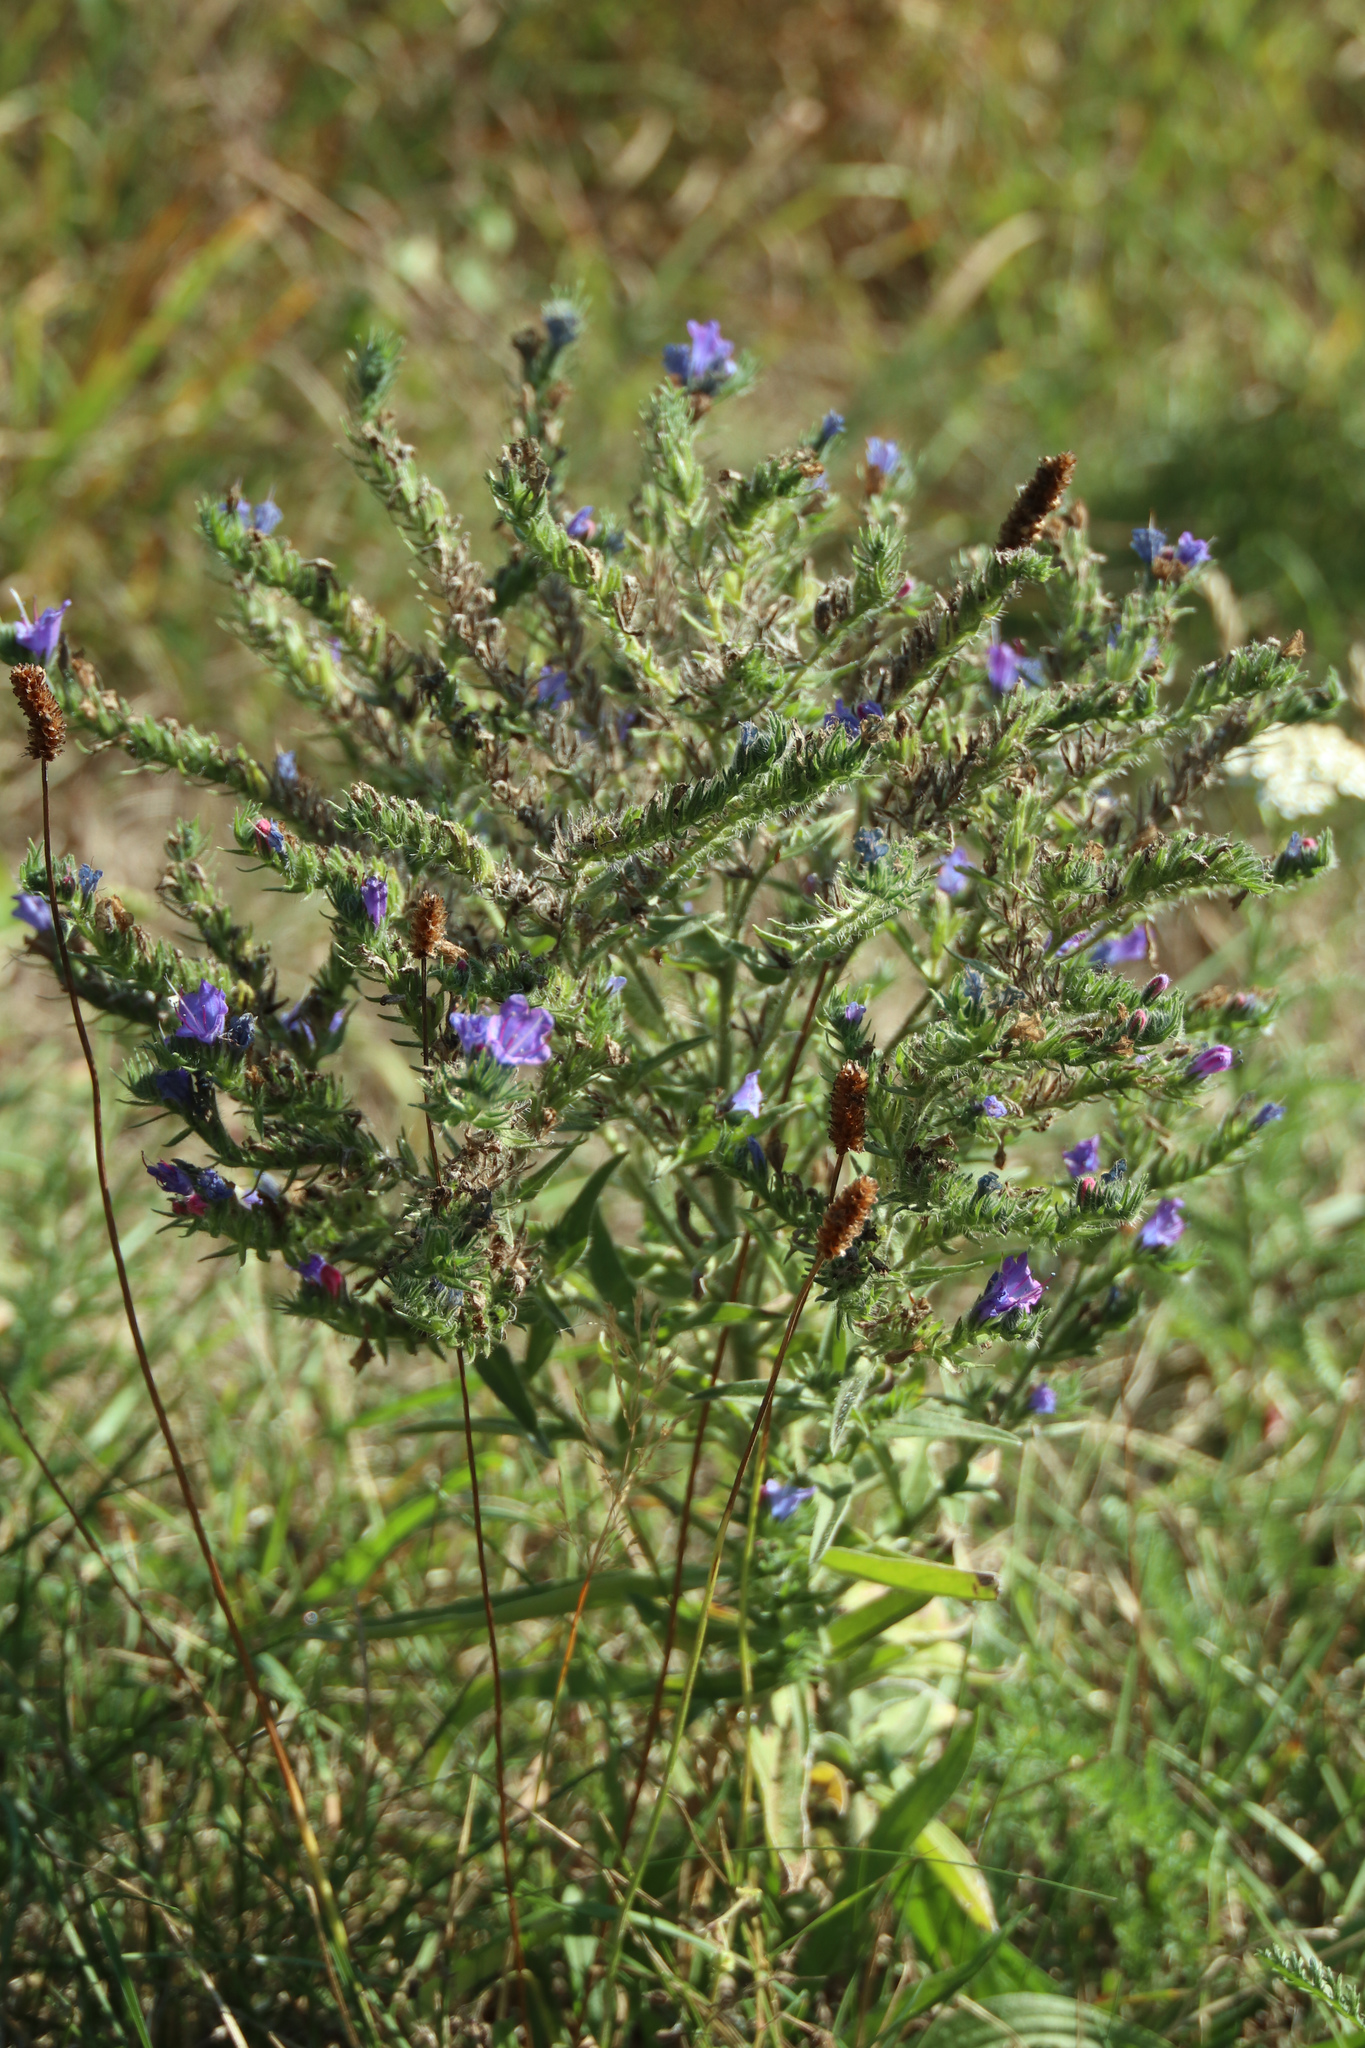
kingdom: Plantae
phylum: Tracheophyta
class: Magnoliopsida
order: Boraginales
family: Boraginaceae
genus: Echium
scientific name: Echium vulgare
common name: Common viper's bugloss
